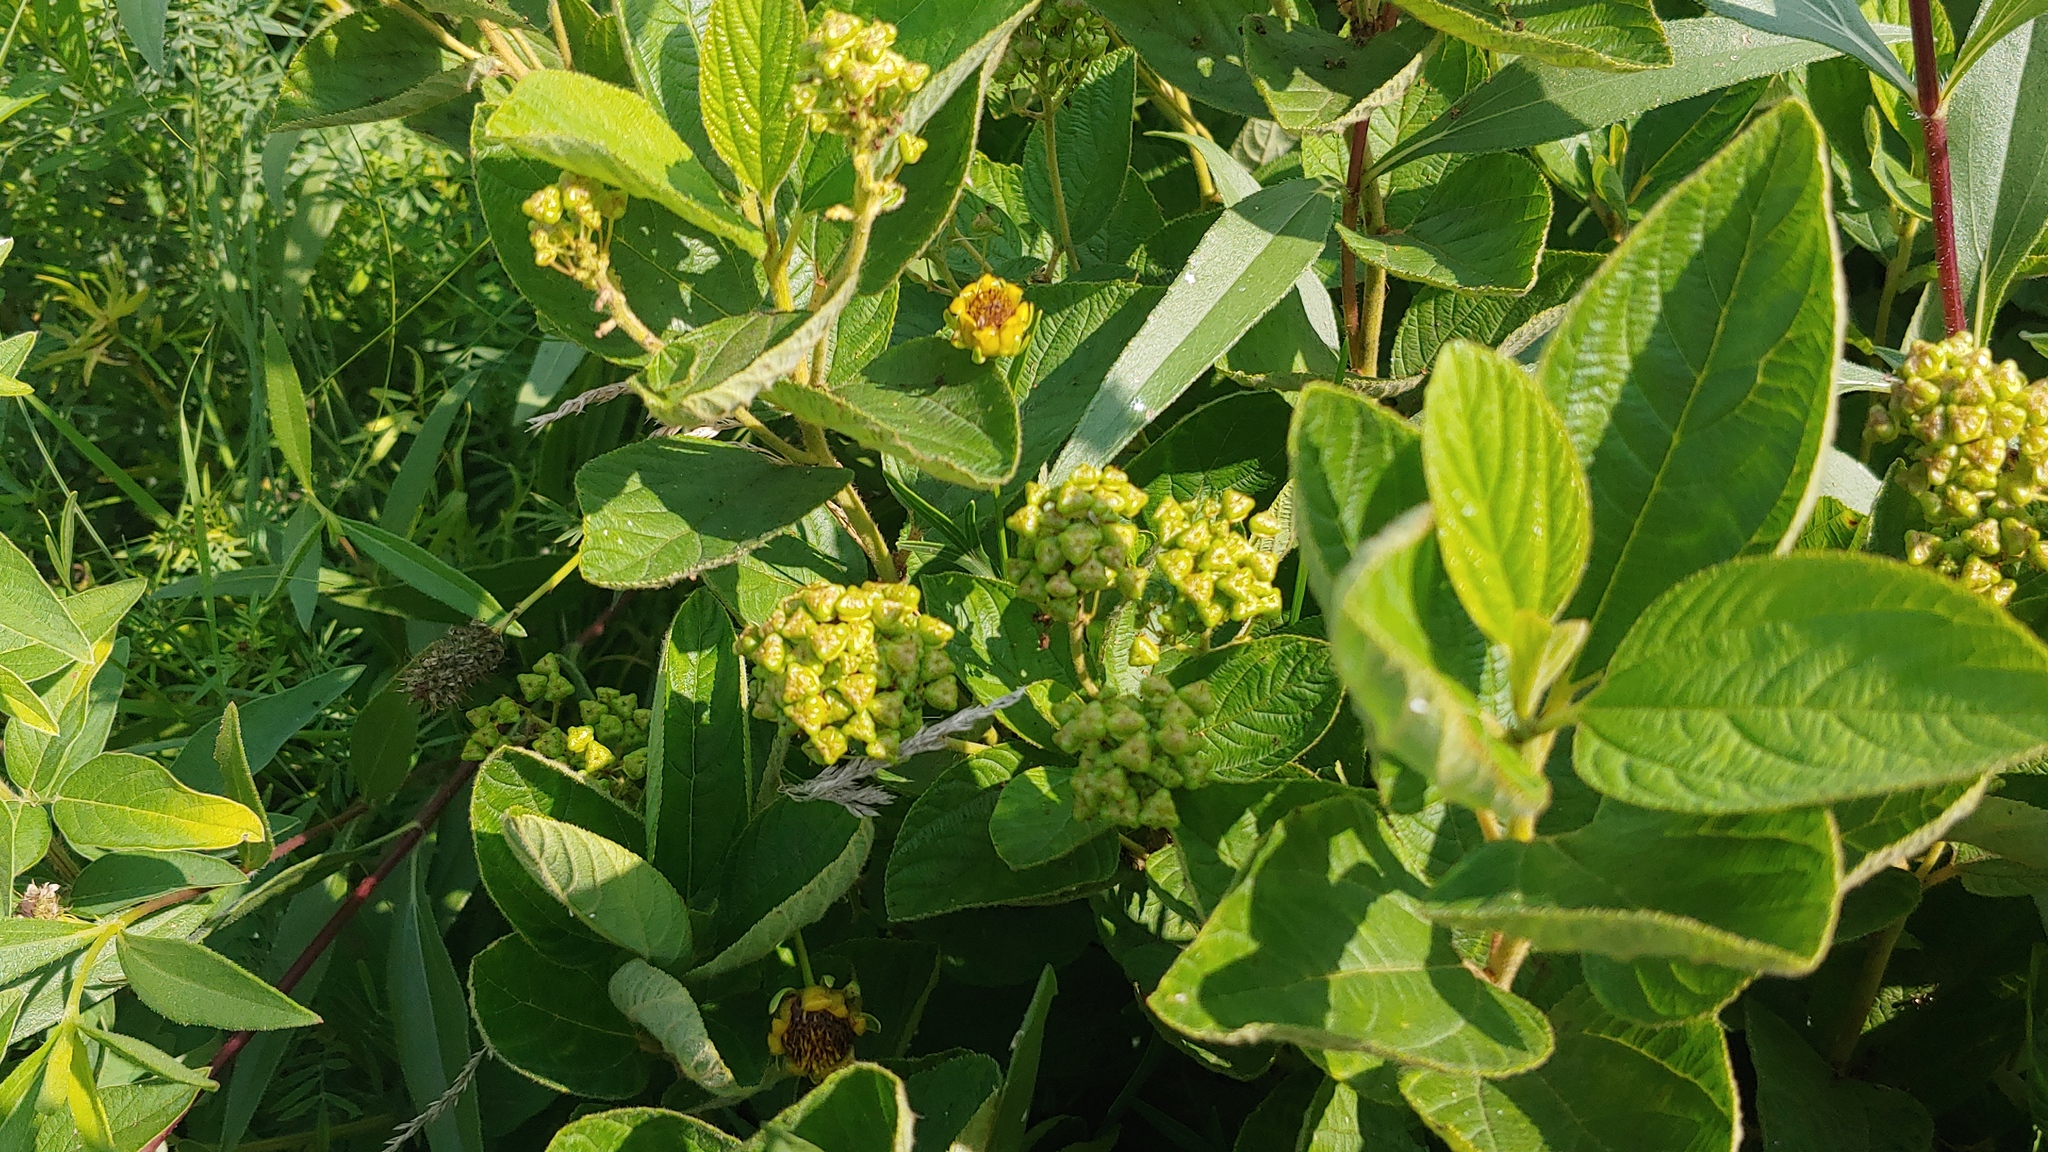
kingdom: Plantae
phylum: Tracheophyta
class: Magnoliopsida
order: Rosales
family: Rhamnaceae
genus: Ceanothus
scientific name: Ceanothus americanus
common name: Redroot
